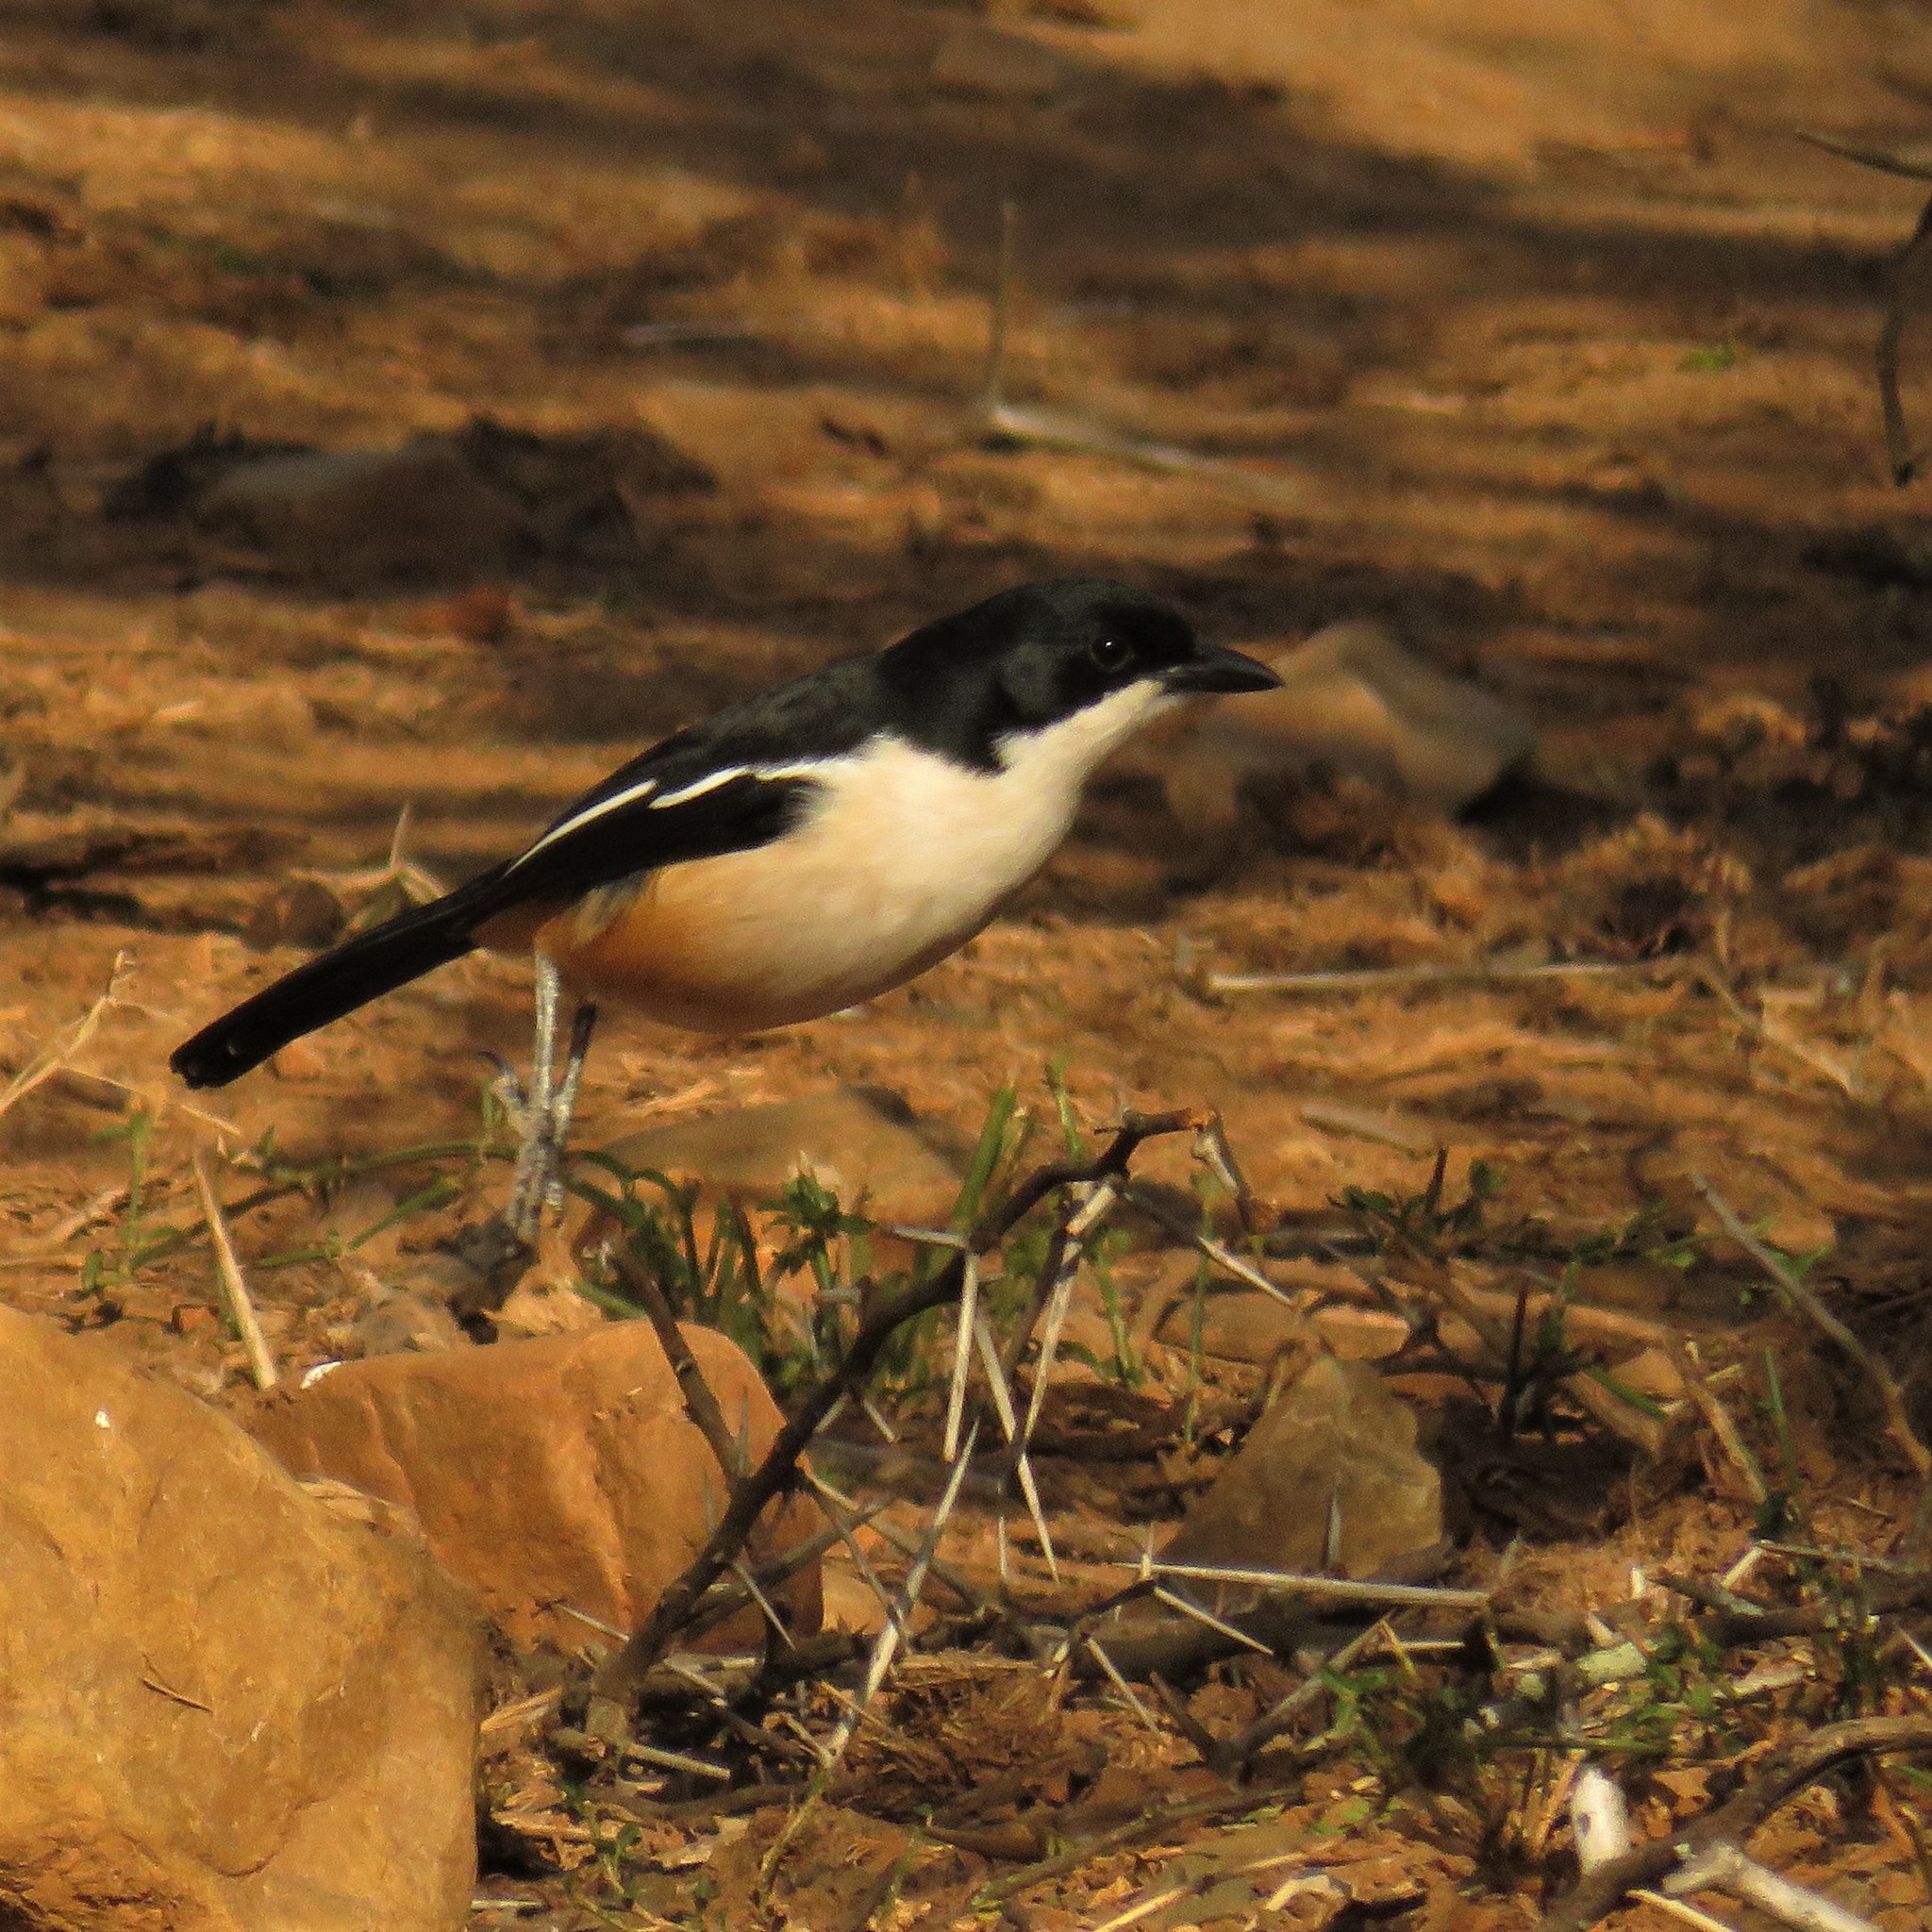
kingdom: Animalia
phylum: Chordata
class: Aves
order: Passeriformes
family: Malaconotidae
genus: Laniarius
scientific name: Laniarius ferrugineus
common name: Southern boubou
